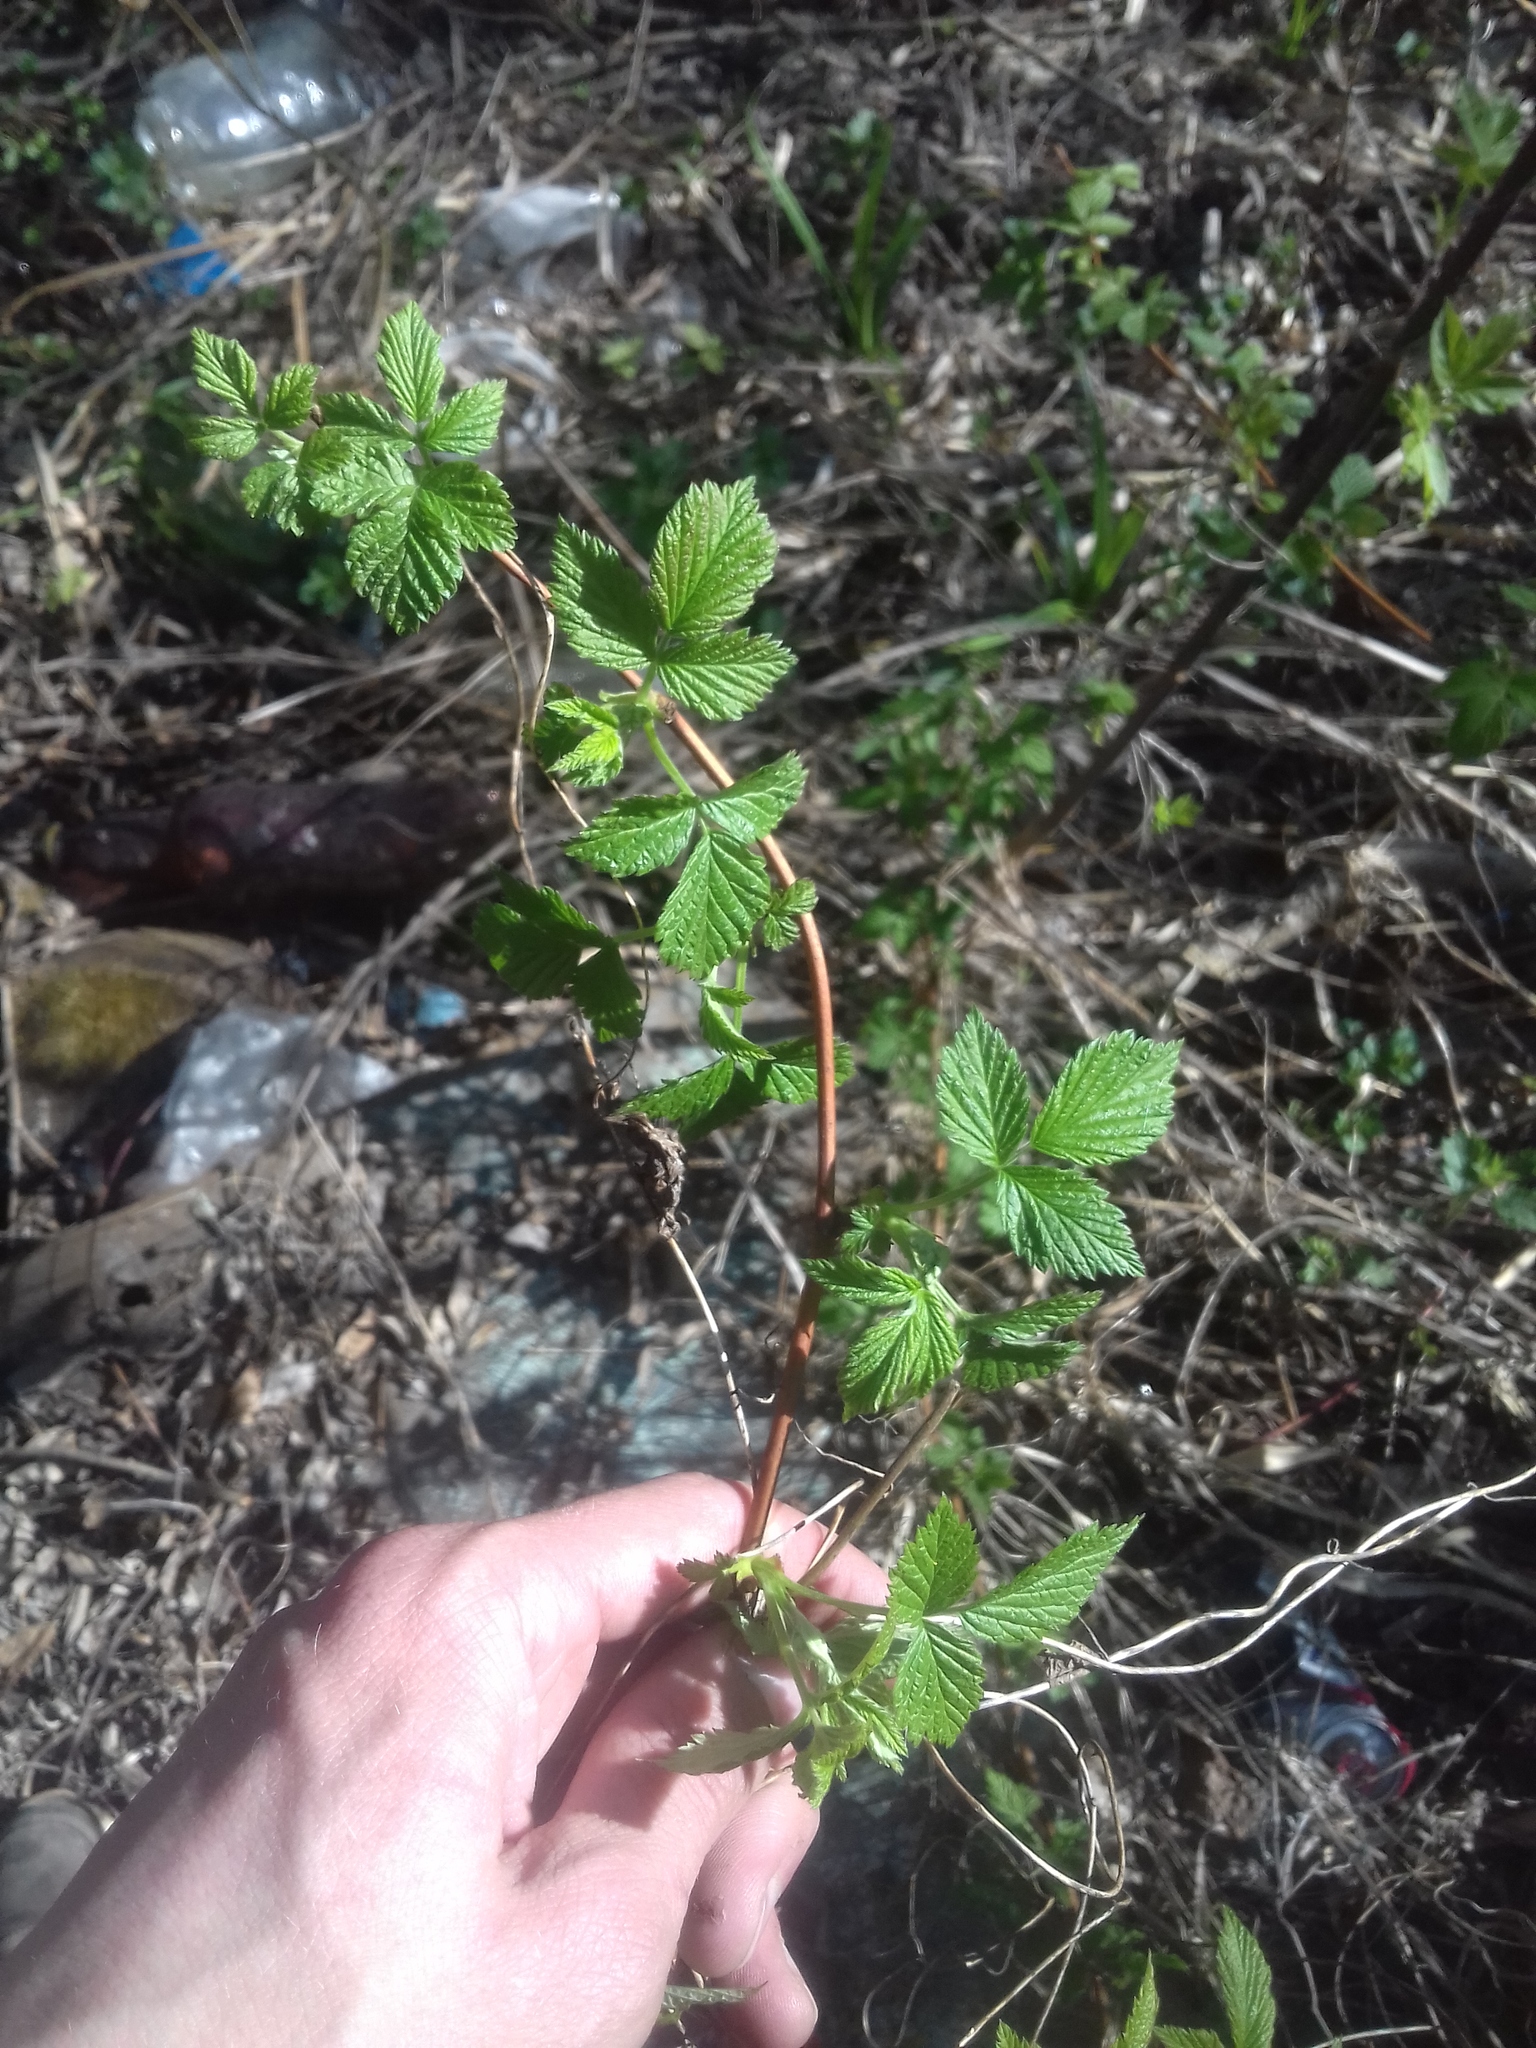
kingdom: Plantae
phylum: Tracheophyta
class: Magnoliopsida
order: Rosales
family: Rosaceae
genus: Rubus
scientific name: Rubus idaeus
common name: Raspberry
